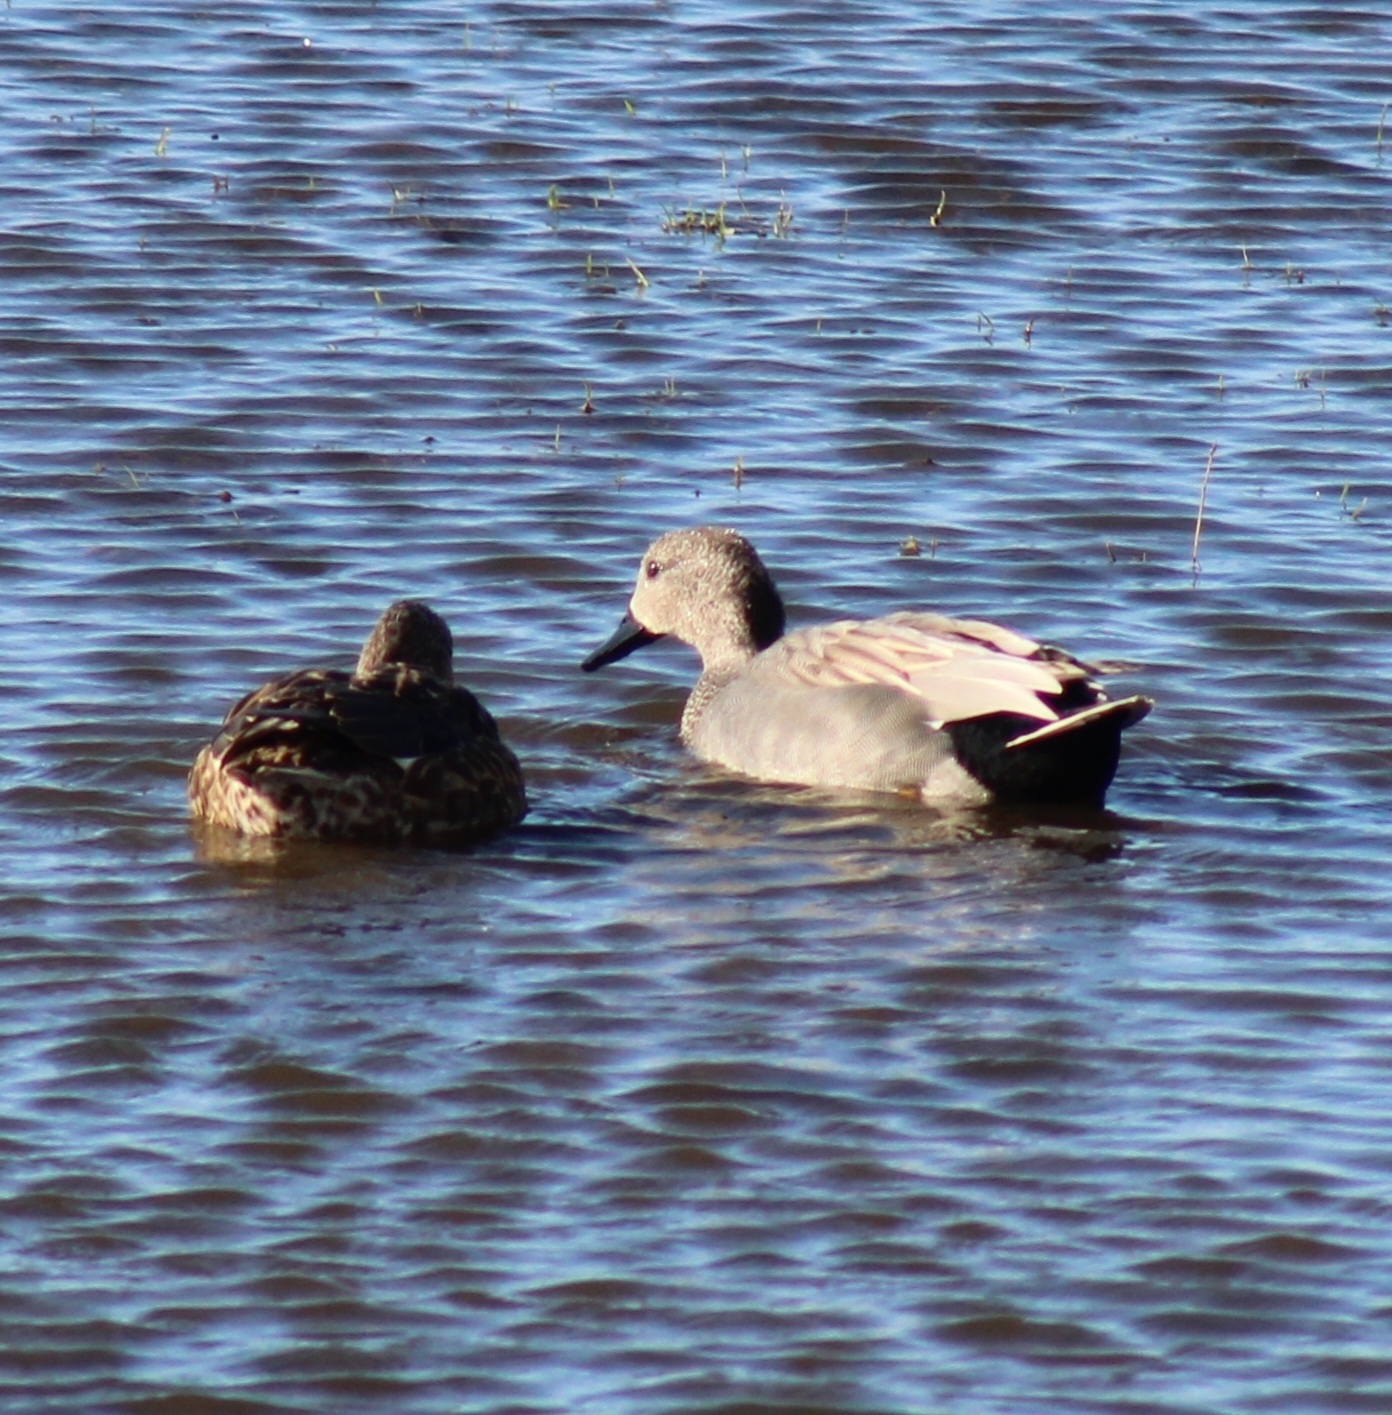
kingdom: Animalia
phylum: Chordata
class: Aves
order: Anseriformes
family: Anatidae
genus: Mareca
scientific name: Mareca strepera
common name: Gadwall
